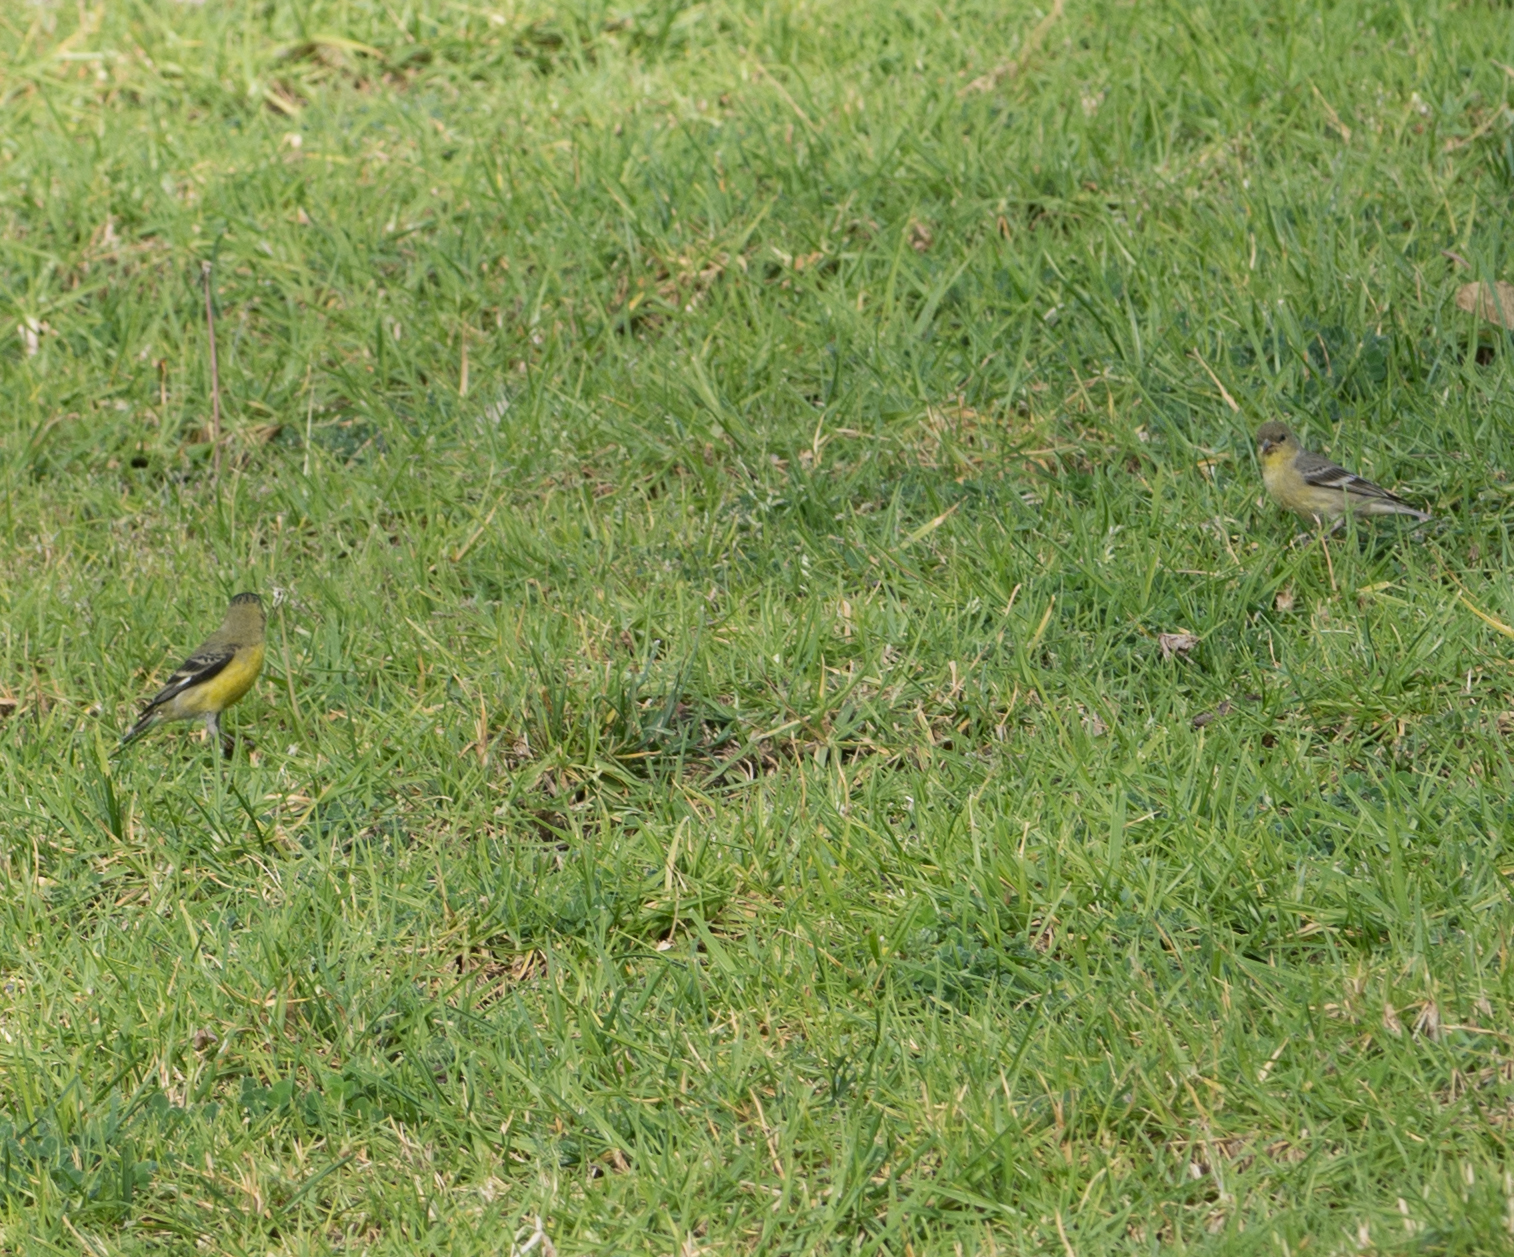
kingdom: Animalia
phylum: Chordata
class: Aves
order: Passeriformes
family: Fringillidae
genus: Spinus
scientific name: Spinus psaltria
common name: Lesser goldfinch
